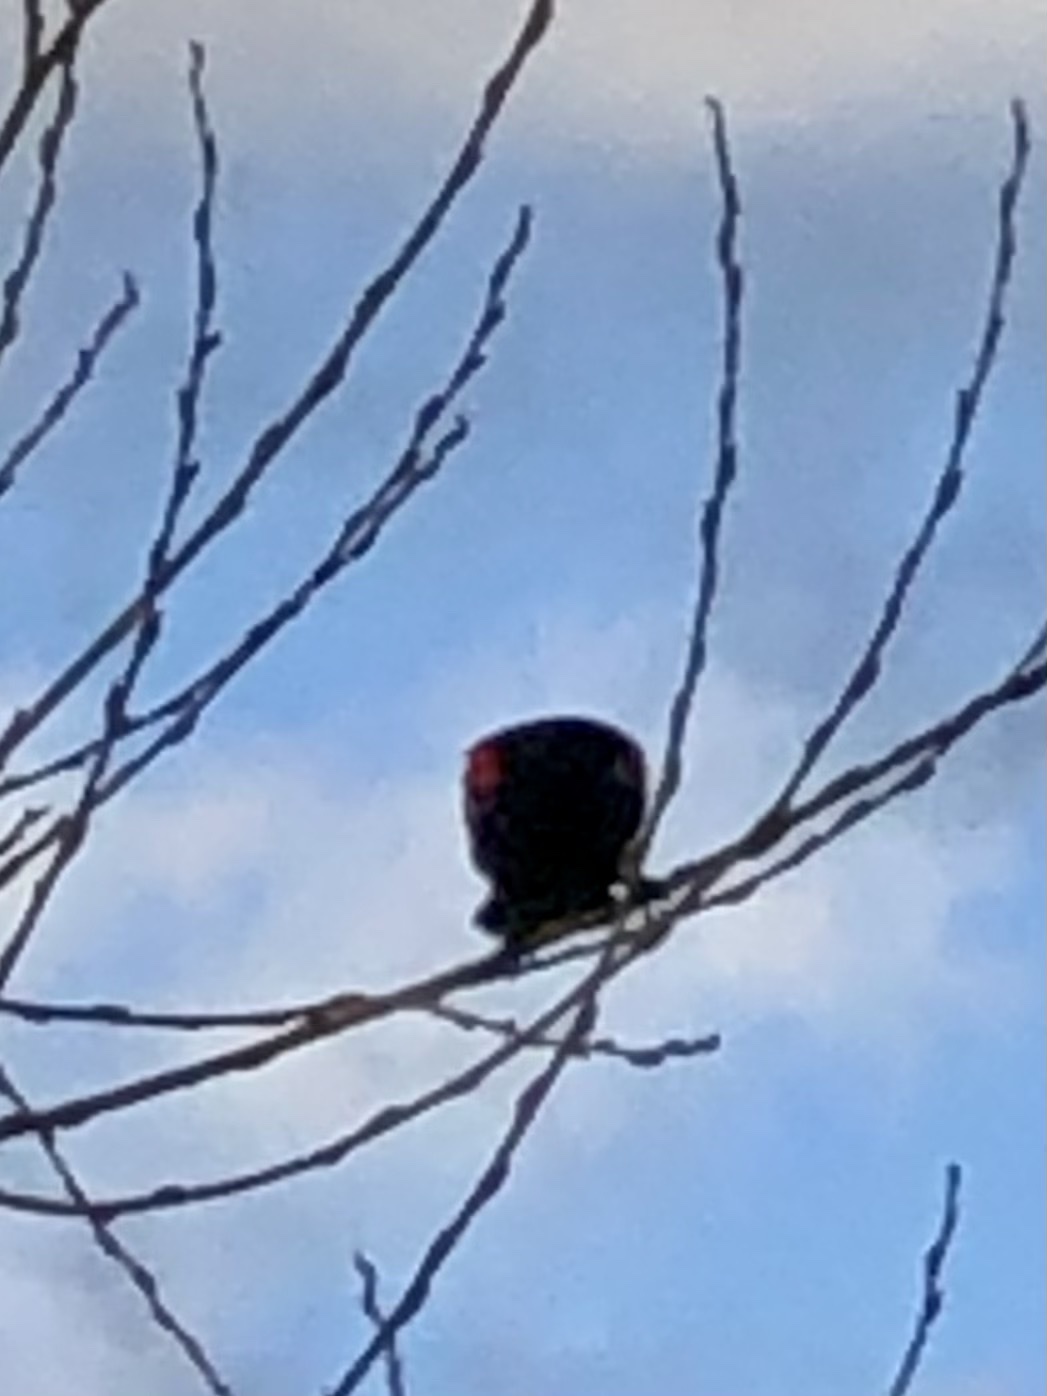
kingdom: Animalia
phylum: Chordata
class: Aves
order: Passeriformes
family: Icteridae
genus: Agelaius
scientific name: Agelaius phoeniceus
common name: Red-winged blackbird
